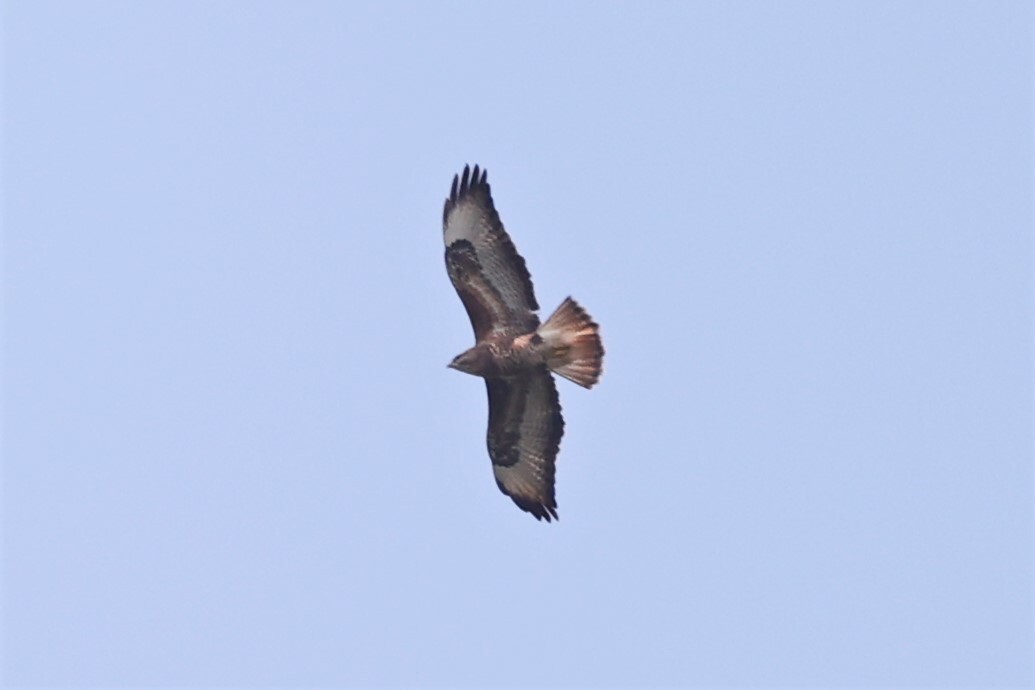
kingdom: Animalia
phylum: Chordata
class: Aves
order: Accipitriformes
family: Accipitridae
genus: Buteo
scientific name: Buteo buteo
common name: Common buzzard
